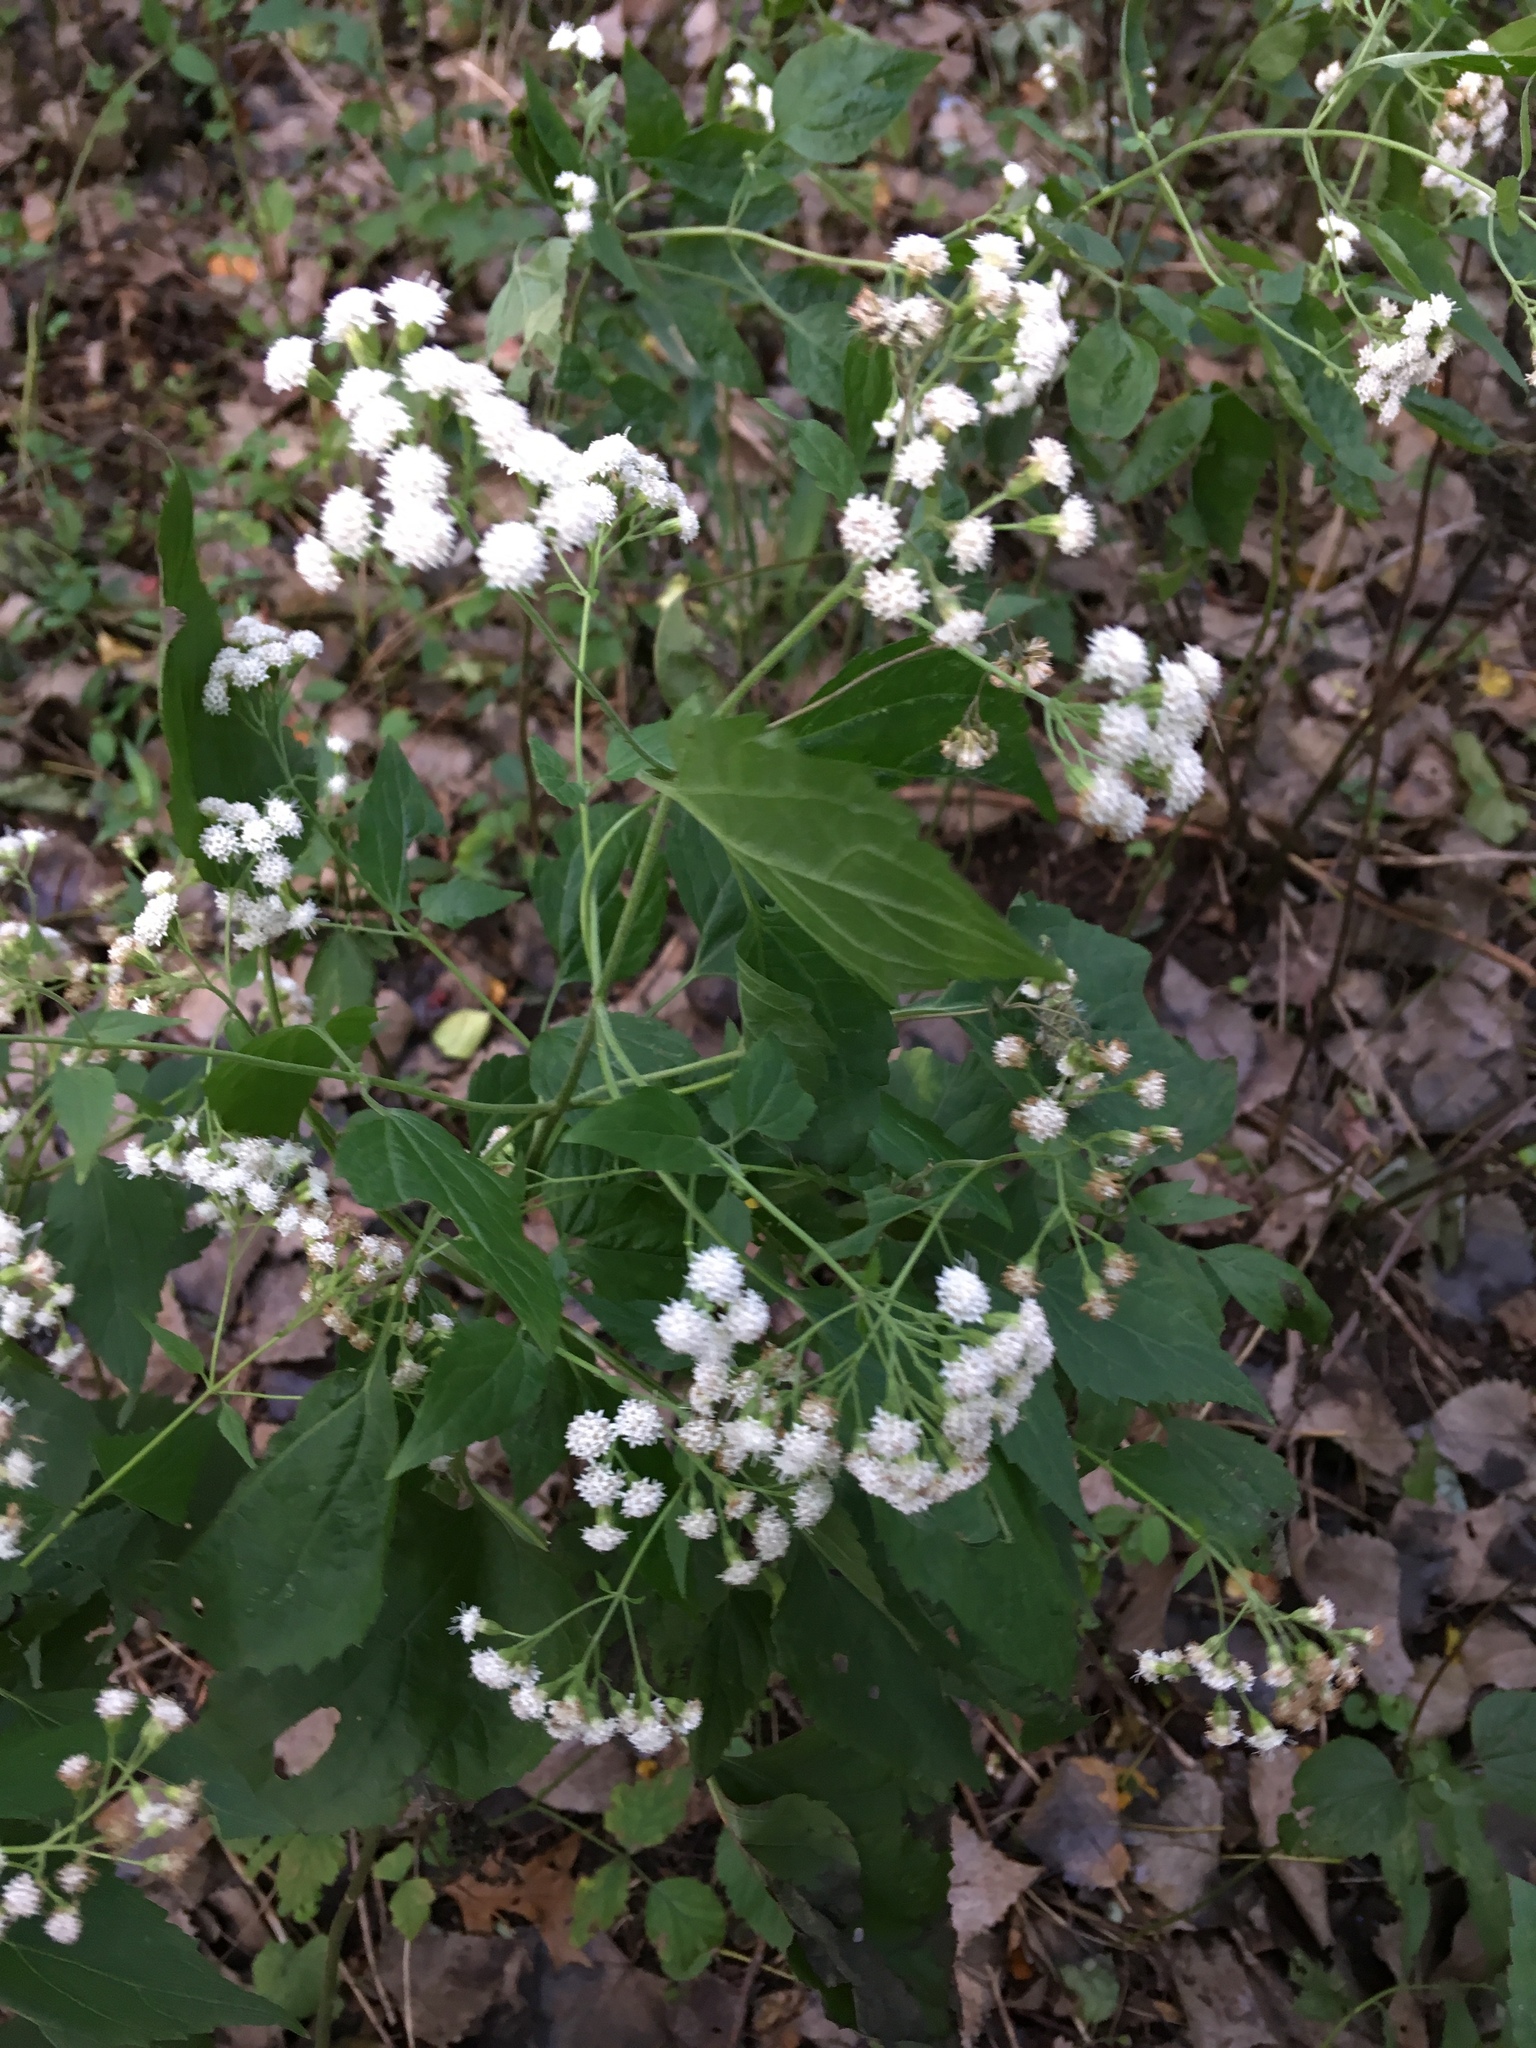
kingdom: Plantae
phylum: Tracheophyta
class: Magnoliopsida
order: Asterales
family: Asteraceae
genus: Ageratina
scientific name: Ageratina altissima
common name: White snakeroot
